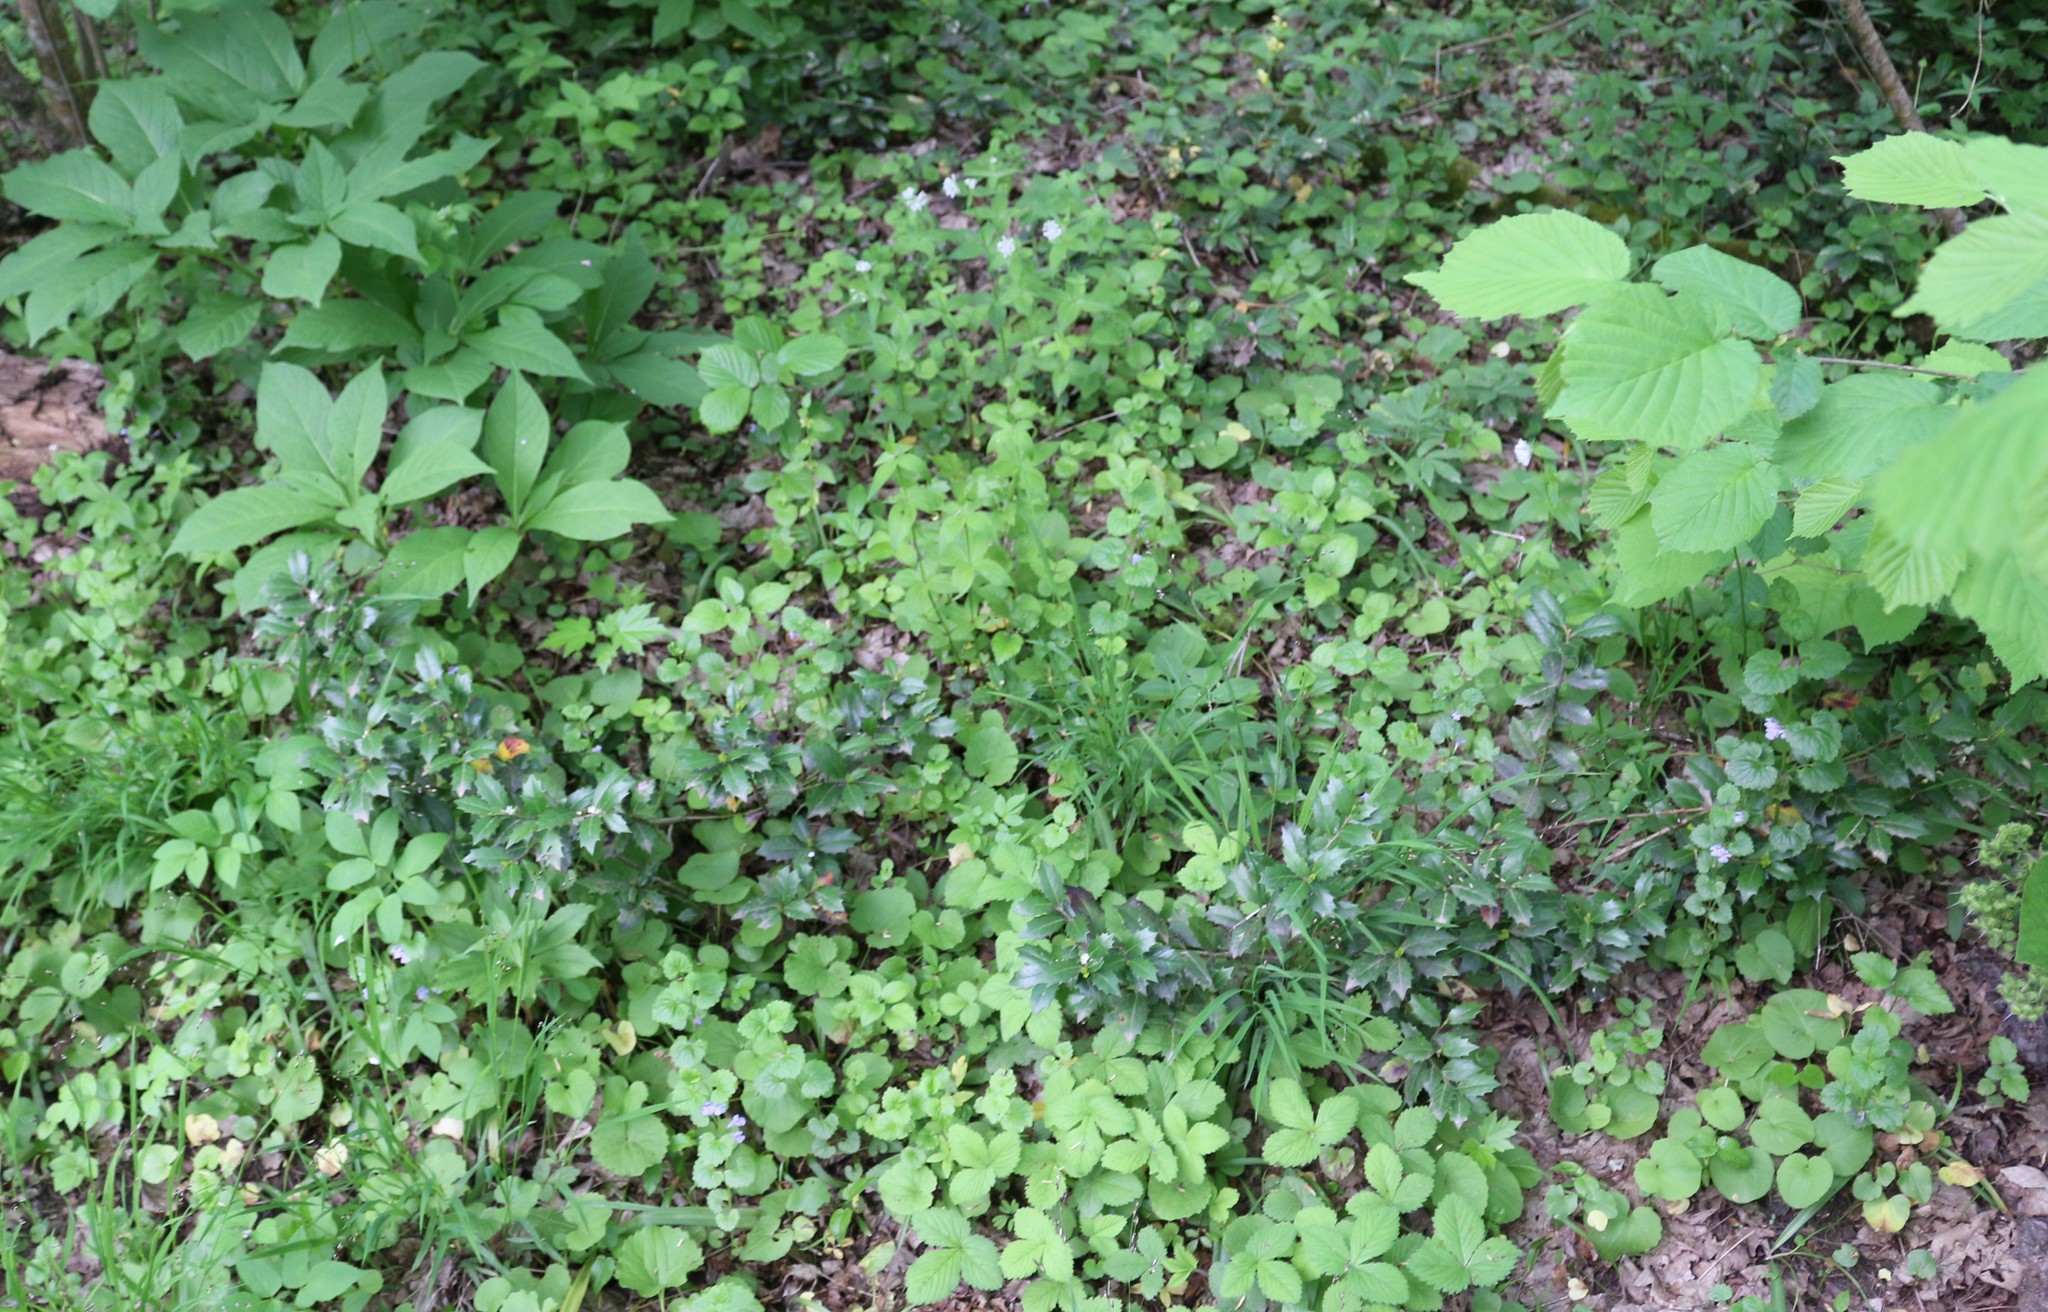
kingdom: Plantae
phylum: Tracheophyta
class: Magnoliopsida
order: Aquifoliales
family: Aquifoliaceae
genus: Ilex
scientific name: Ilex colchica
